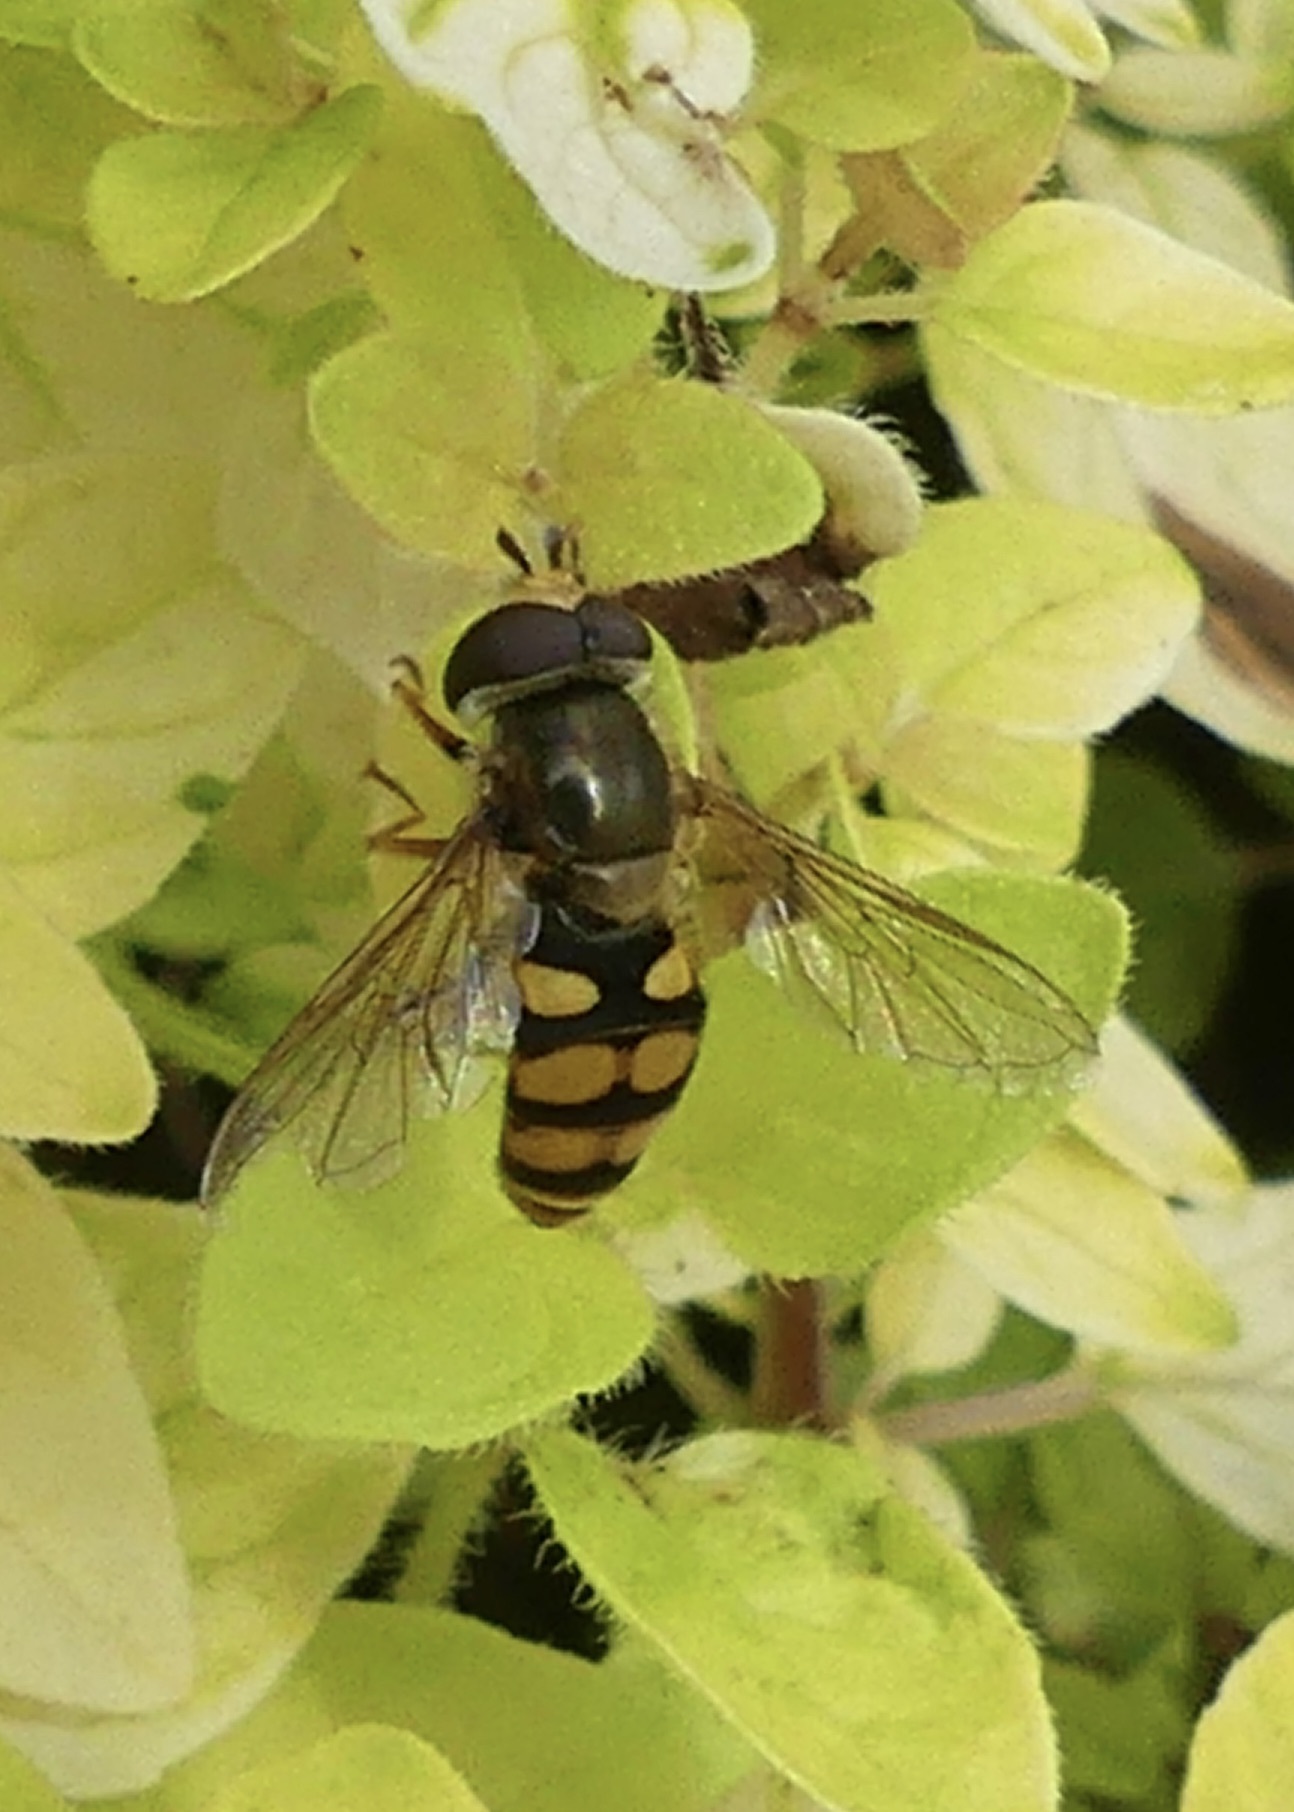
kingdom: Animalia
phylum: Arthropoda
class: Insecta
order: Diptera
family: Syrphidae
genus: Eupeodes
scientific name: Eupeodes corollae
